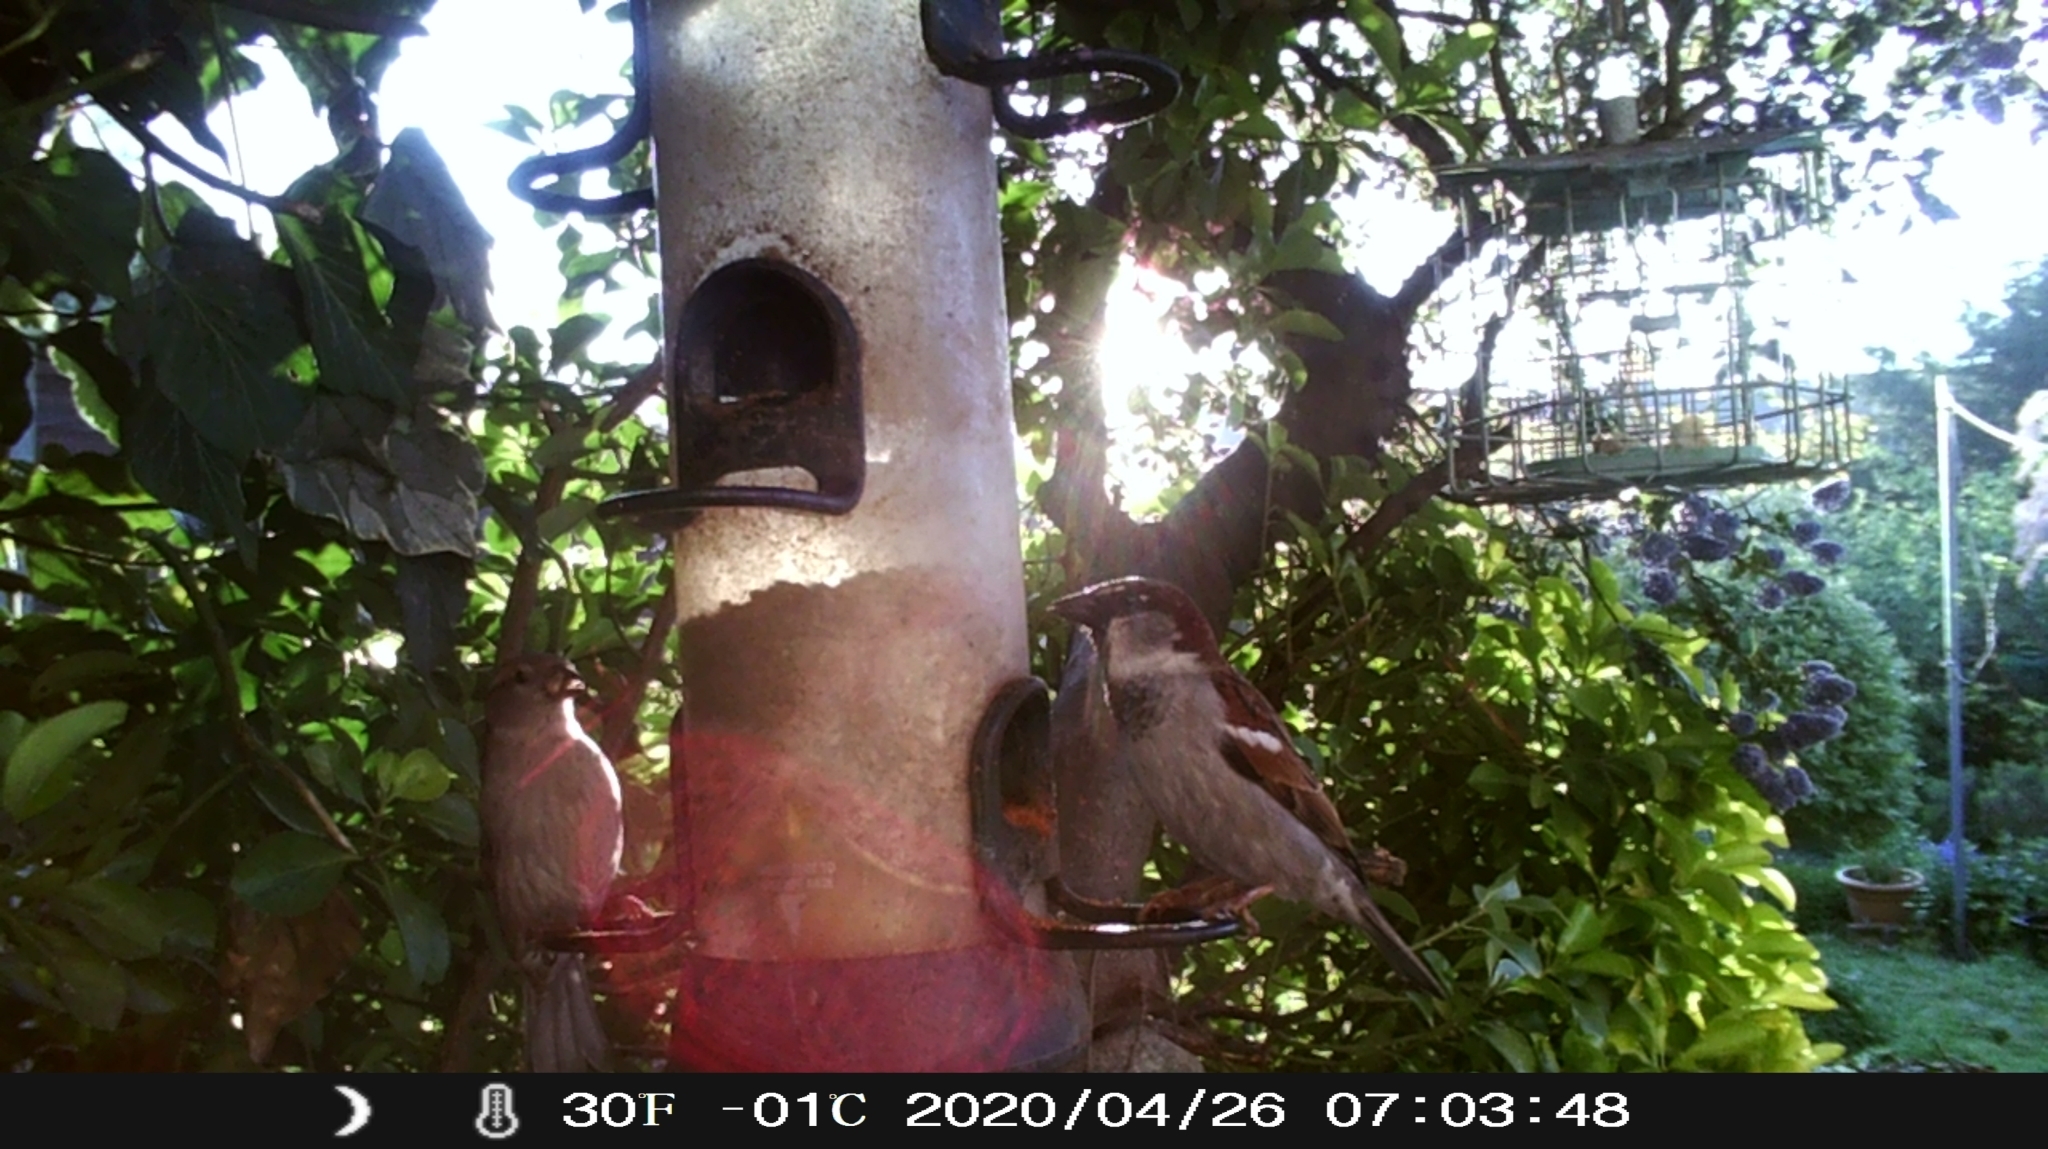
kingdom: Animalia
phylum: Chordata
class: Aves
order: Passeriformes
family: Passeridae
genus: Passer
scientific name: Passer domesticus
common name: House sparrow
